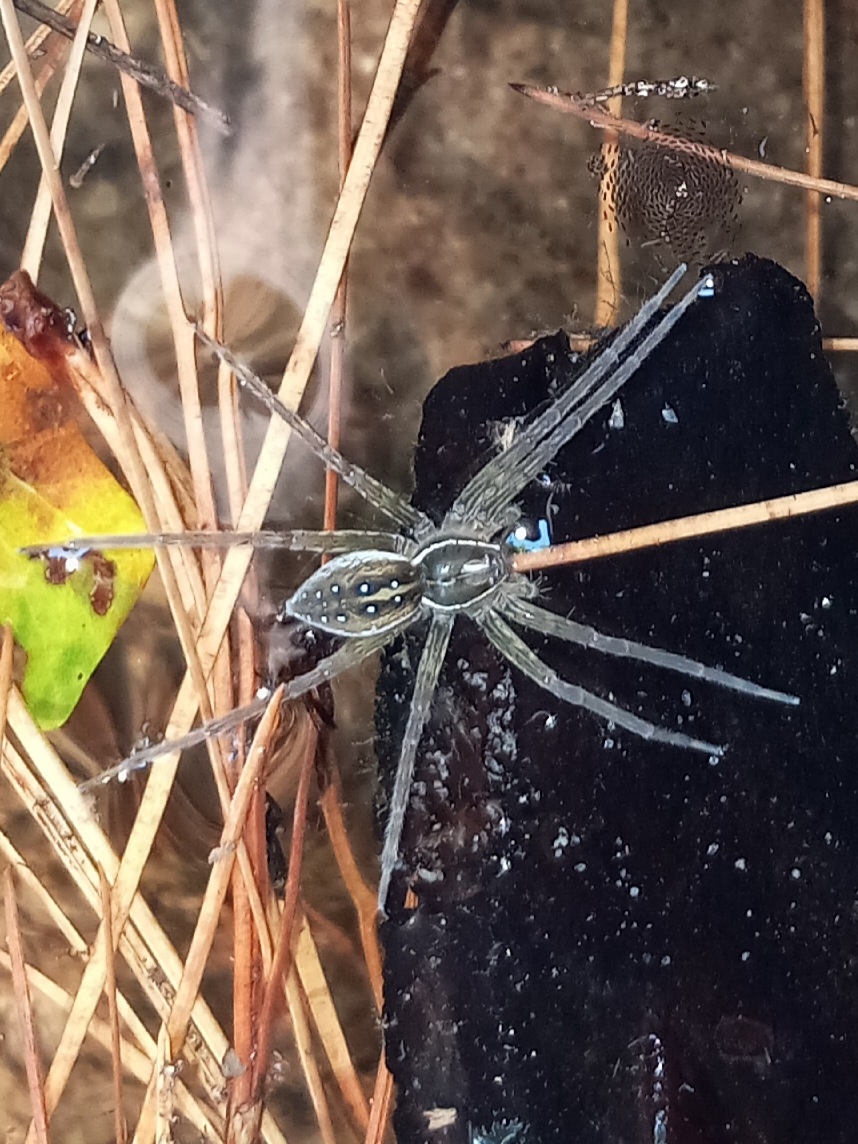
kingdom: Animalia
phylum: Arthropoda
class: Arachnida
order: Araneae
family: Pisauridae
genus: Dolomedes
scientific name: Dolomedes triton
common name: Six-spotted fishing spider
